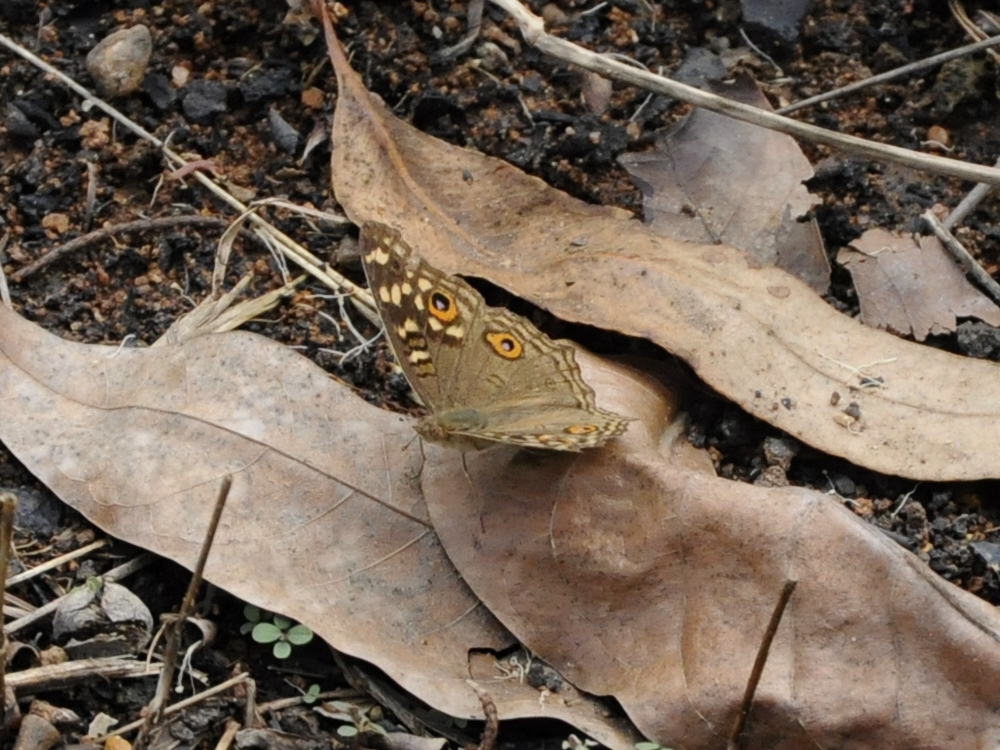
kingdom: Animalia
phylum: Arthropoda
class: Insecta
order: Lepidoptera
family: Nymphalidae
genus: Junonia
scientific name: Junonia lemonias
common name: Lemon pansy
